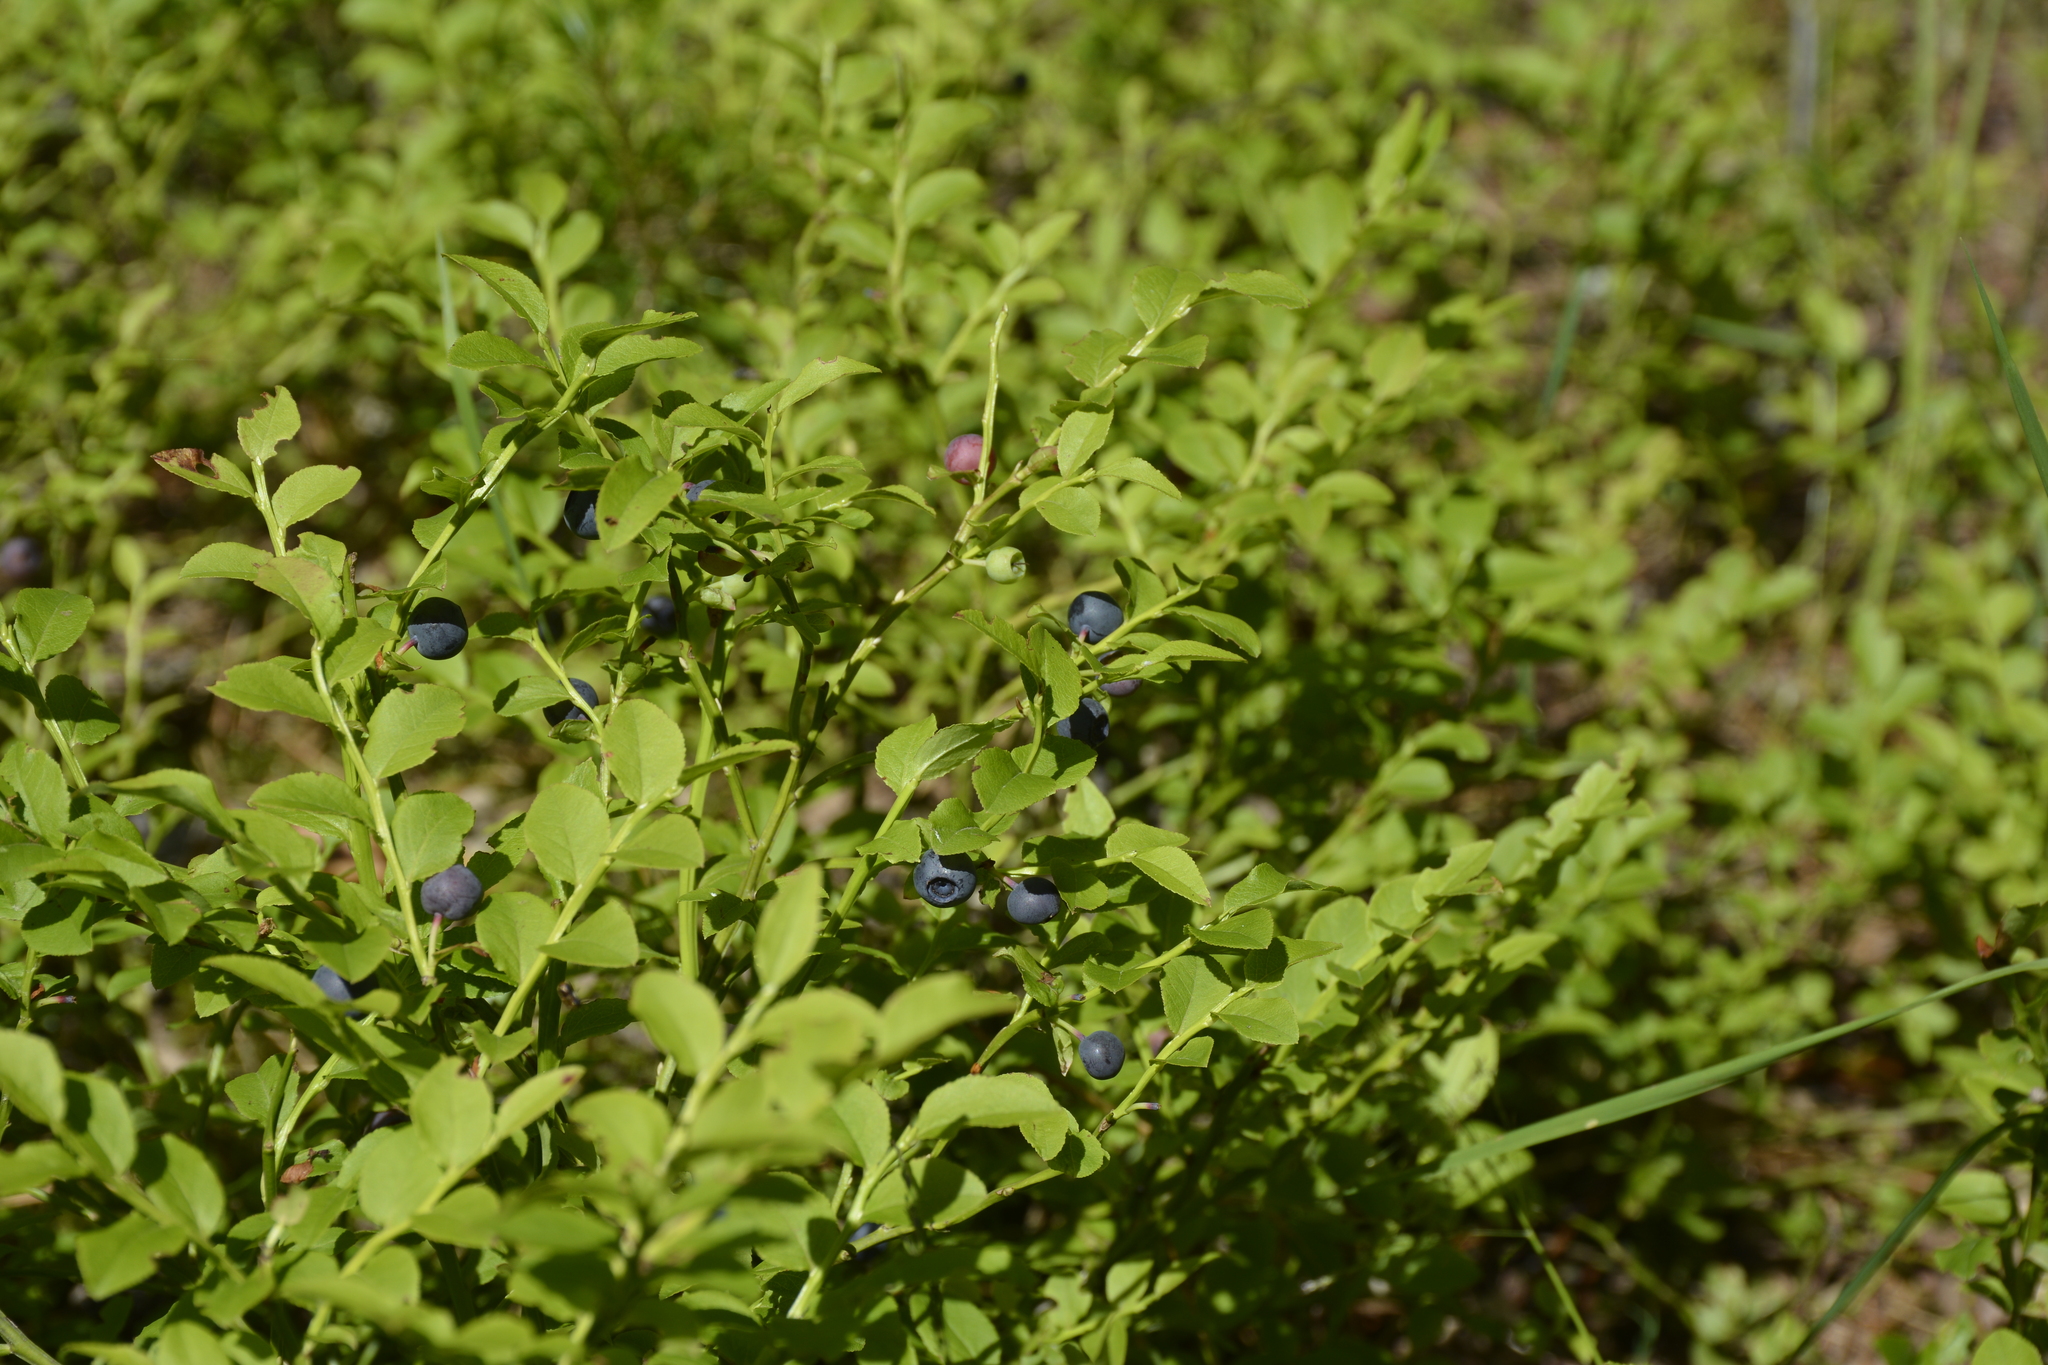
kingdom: Plantae
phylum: Tracheophyta
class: Magnoliopsida
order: Ericales
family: Ericaceae
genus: Vaccinium
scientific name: Vaccinium myrtillus
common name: Bilberry
